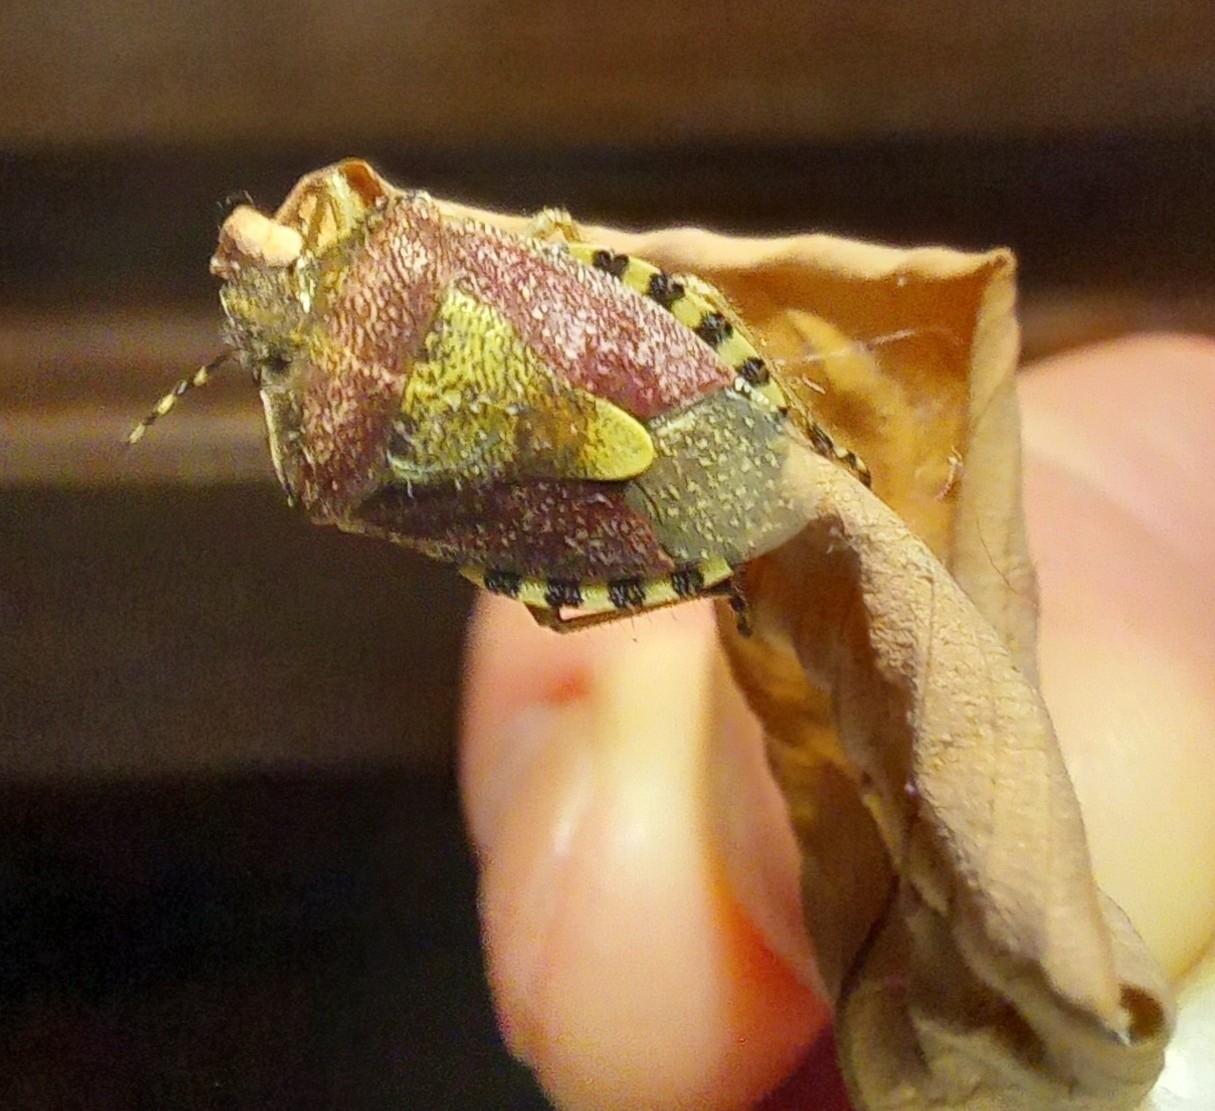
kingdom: Animalia
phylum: Arthropoda
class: Insecta
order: Hemiptera
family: Pentatomidae
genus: Dolycoris
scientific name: Dolycoris baccarum
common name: Sloe bug
